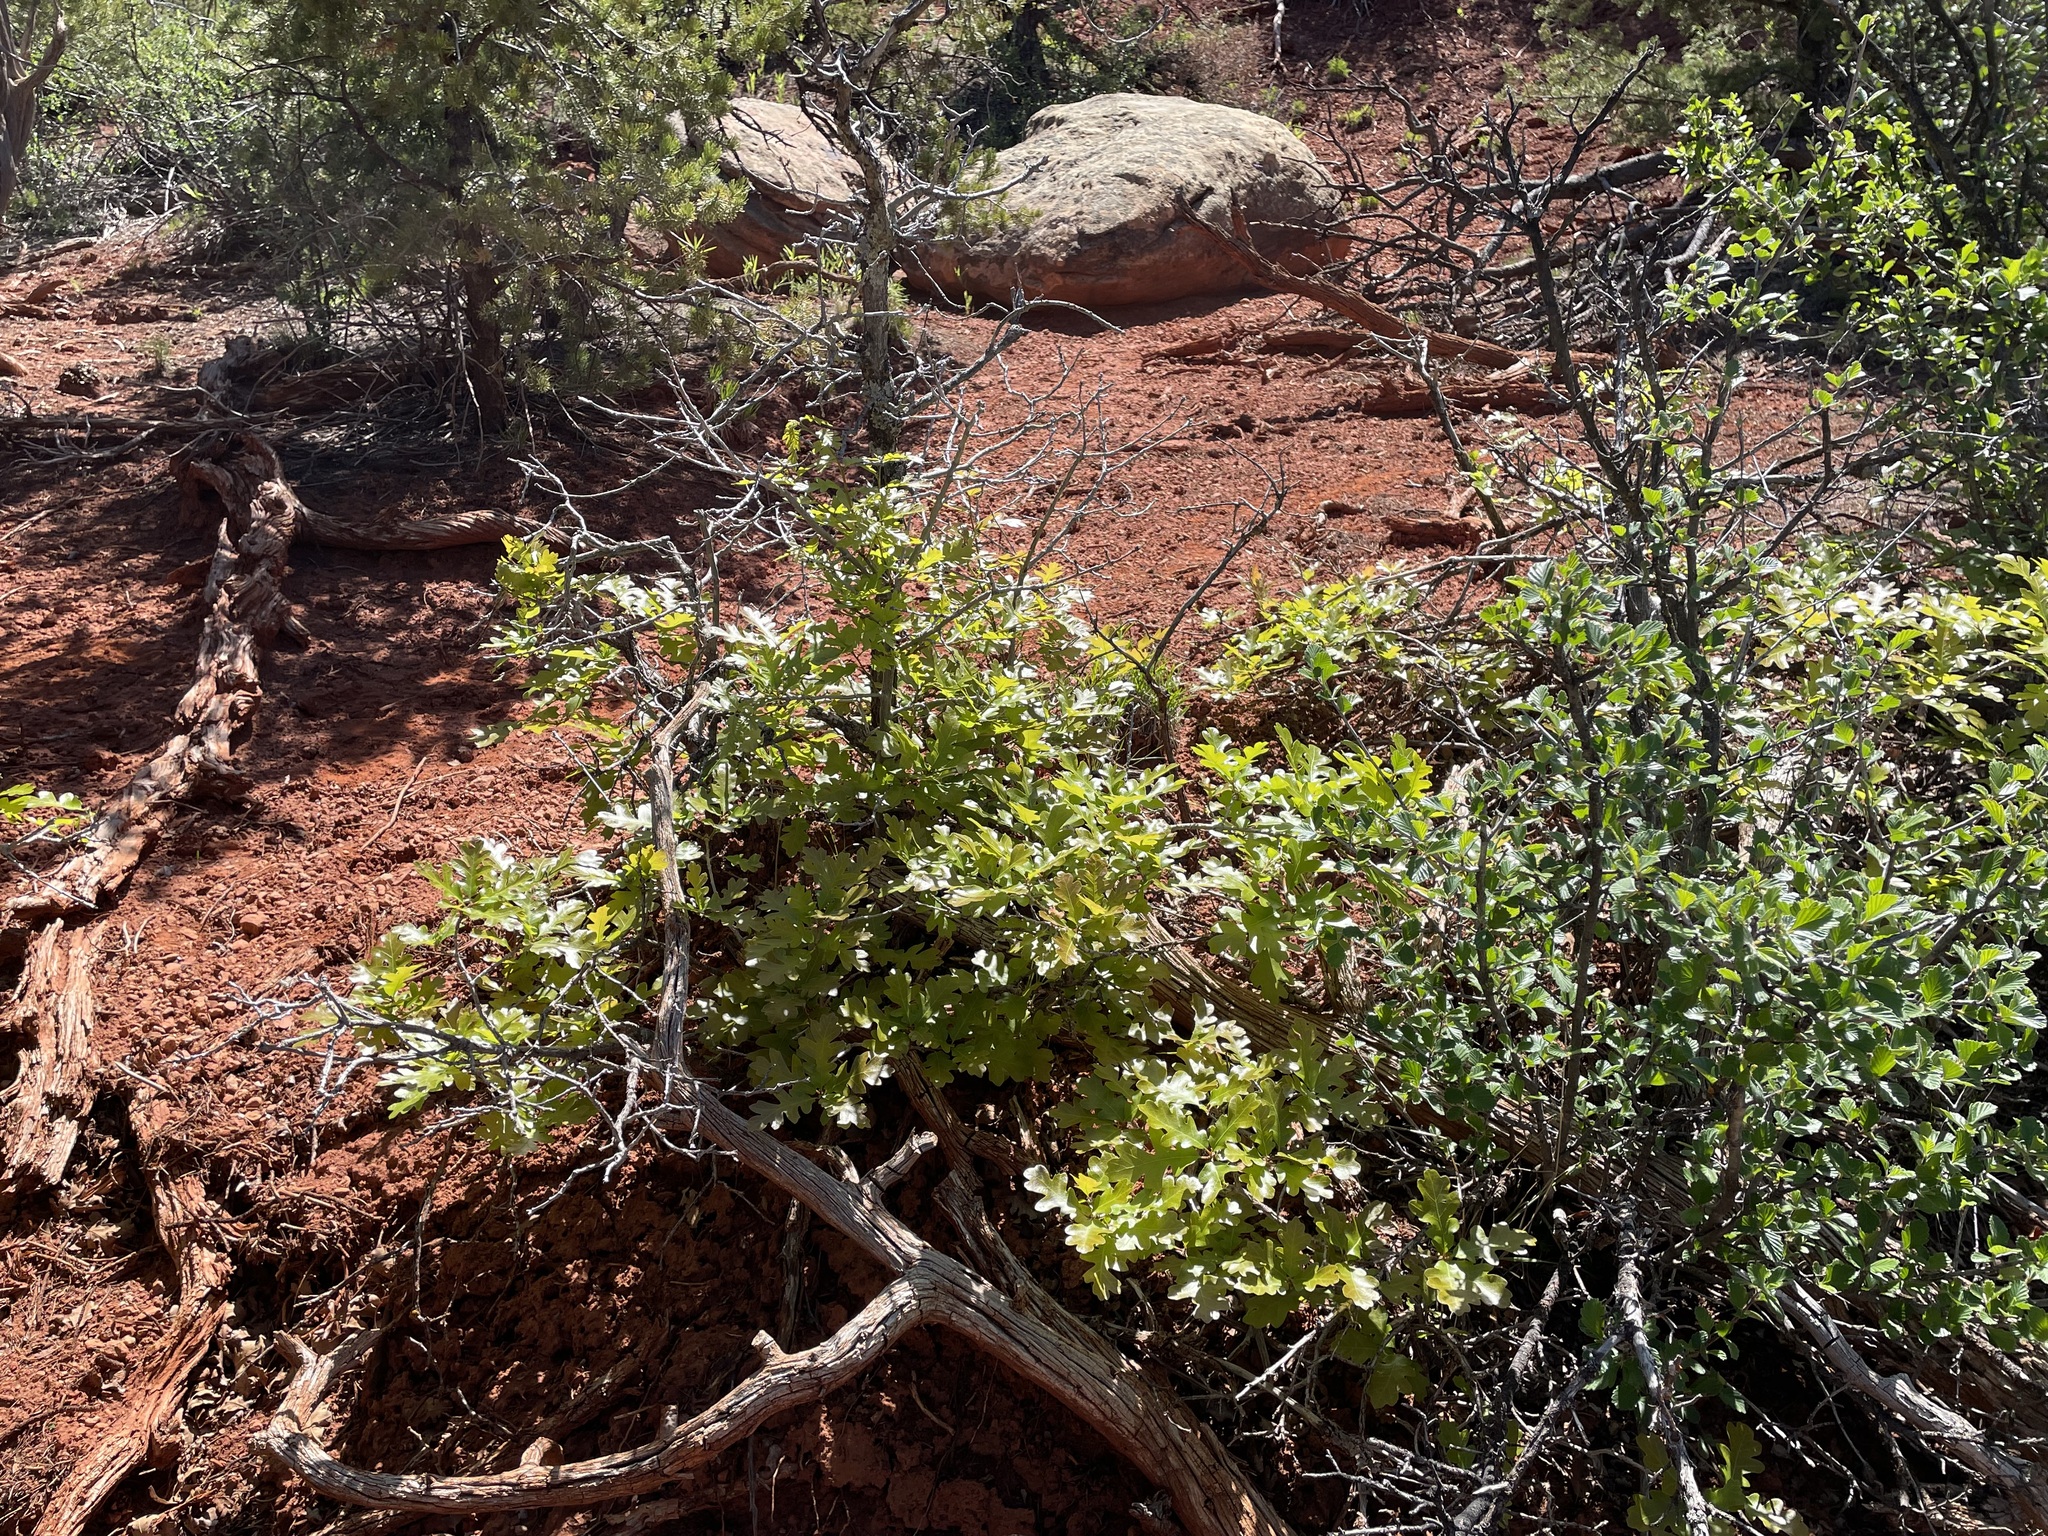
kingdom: Plantae
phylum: Tracheophyta
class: Magnoliopsida
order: Fagales
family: Fagaceae
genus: Quercus
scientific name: Quercus gambelii
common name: Gambel oak
